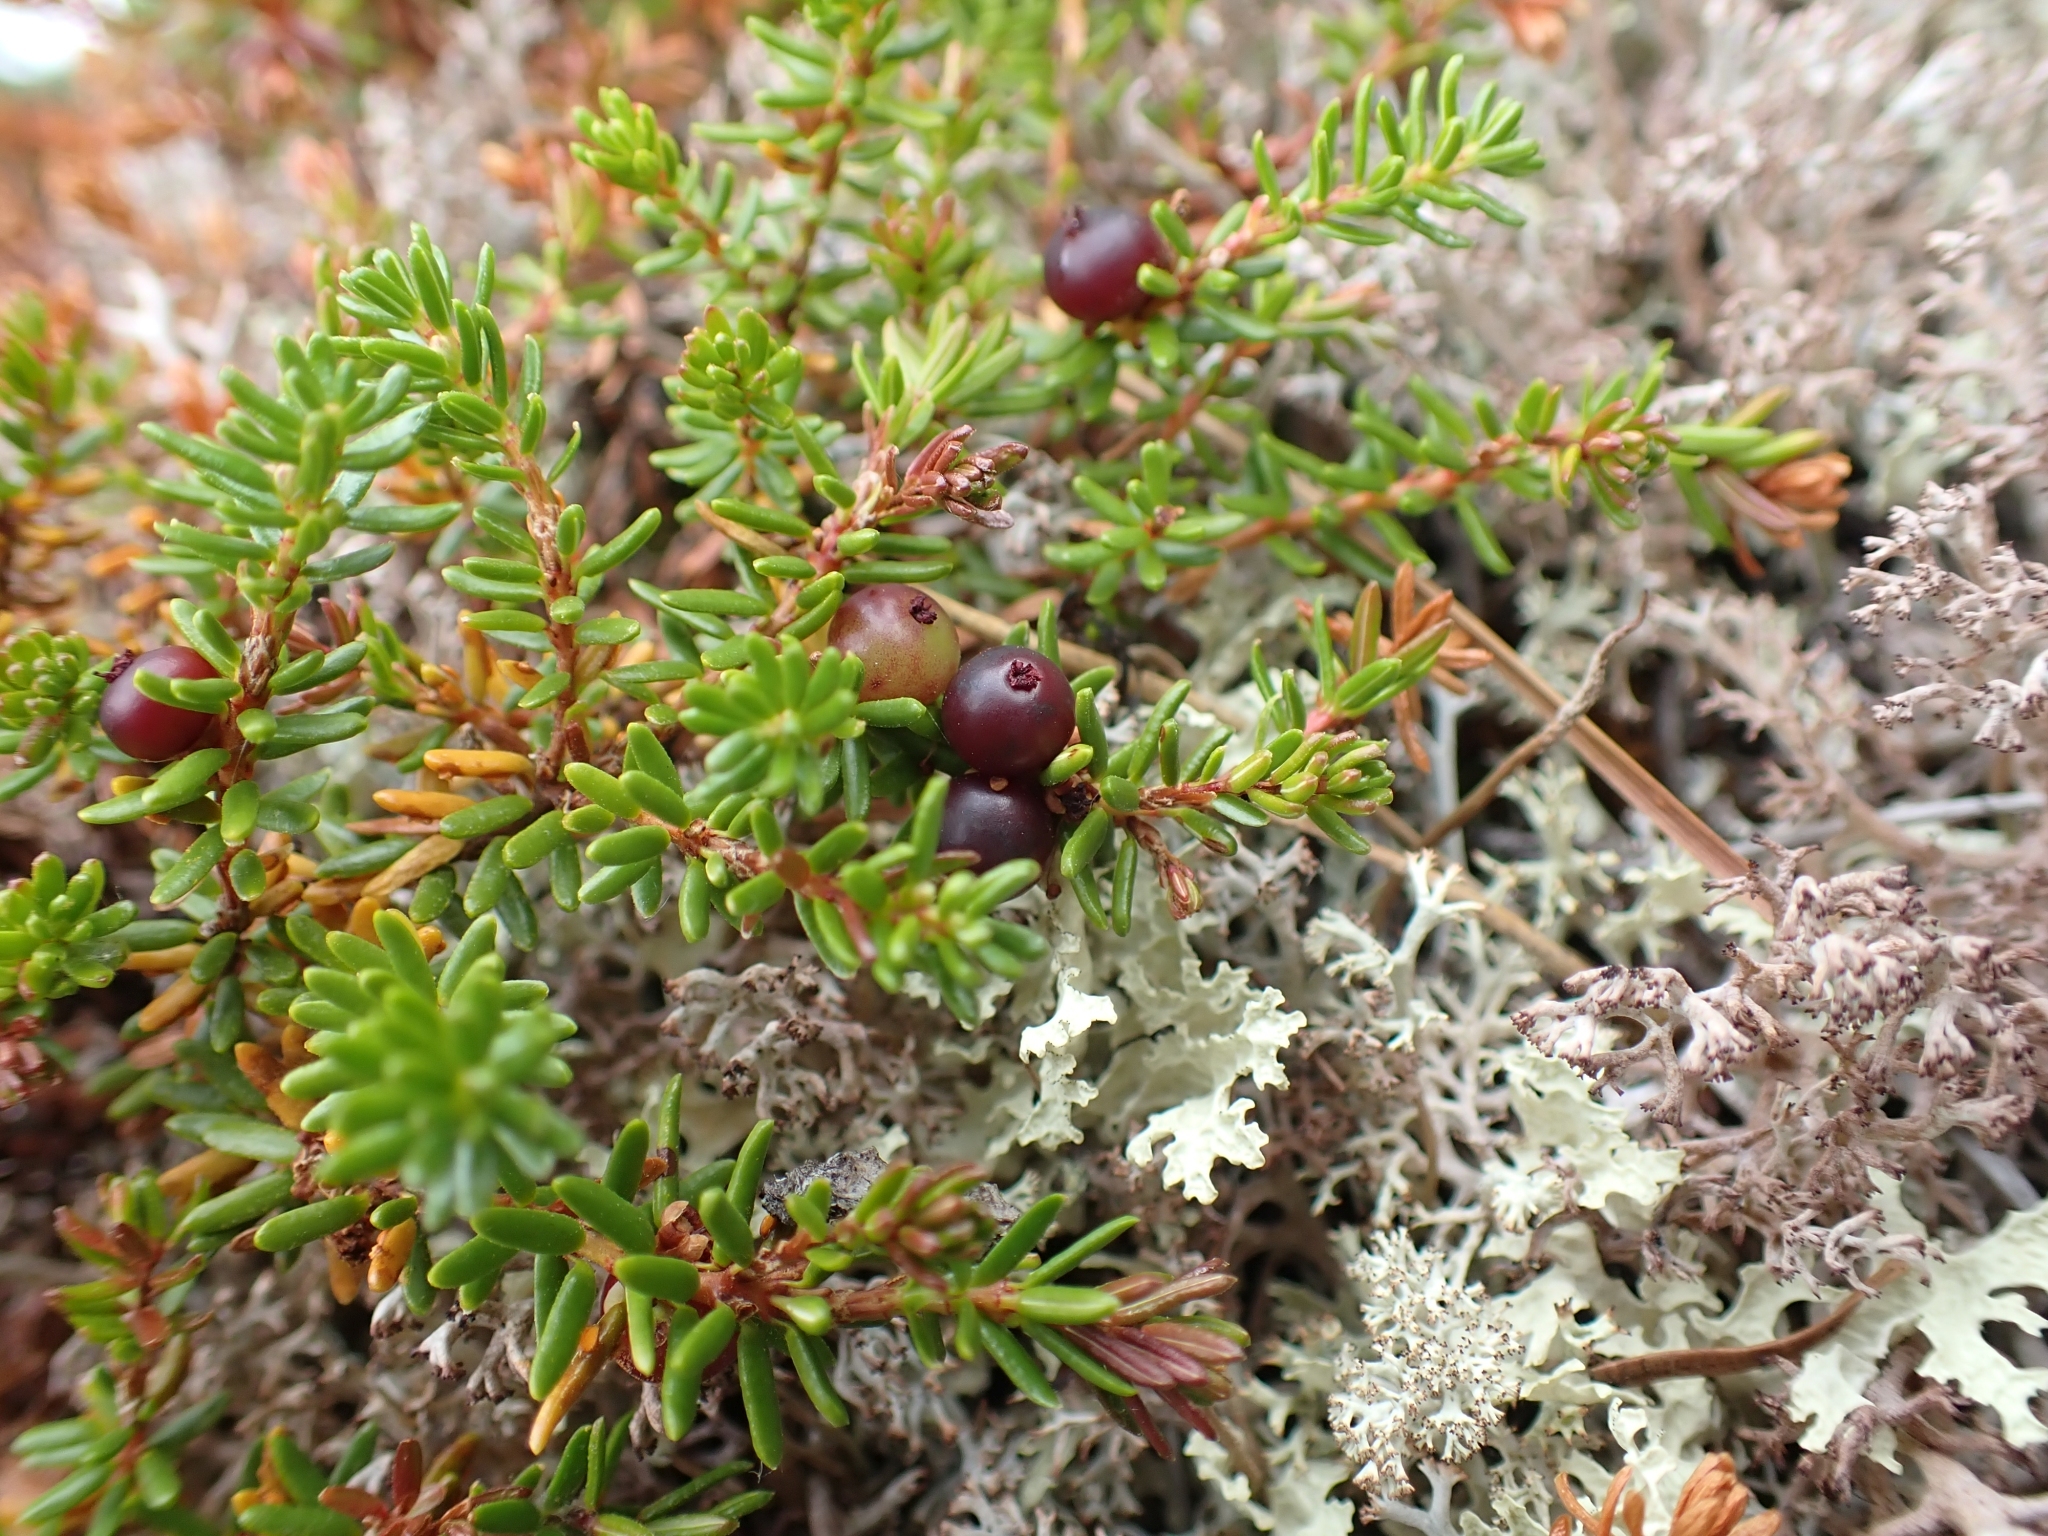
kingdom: Plantae
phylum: Tracheophyta
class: Magnoliopsida
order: Ericales
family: Ericaceae
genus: Empetrum
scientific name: Empetrum nigrum
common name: Black crowberry
